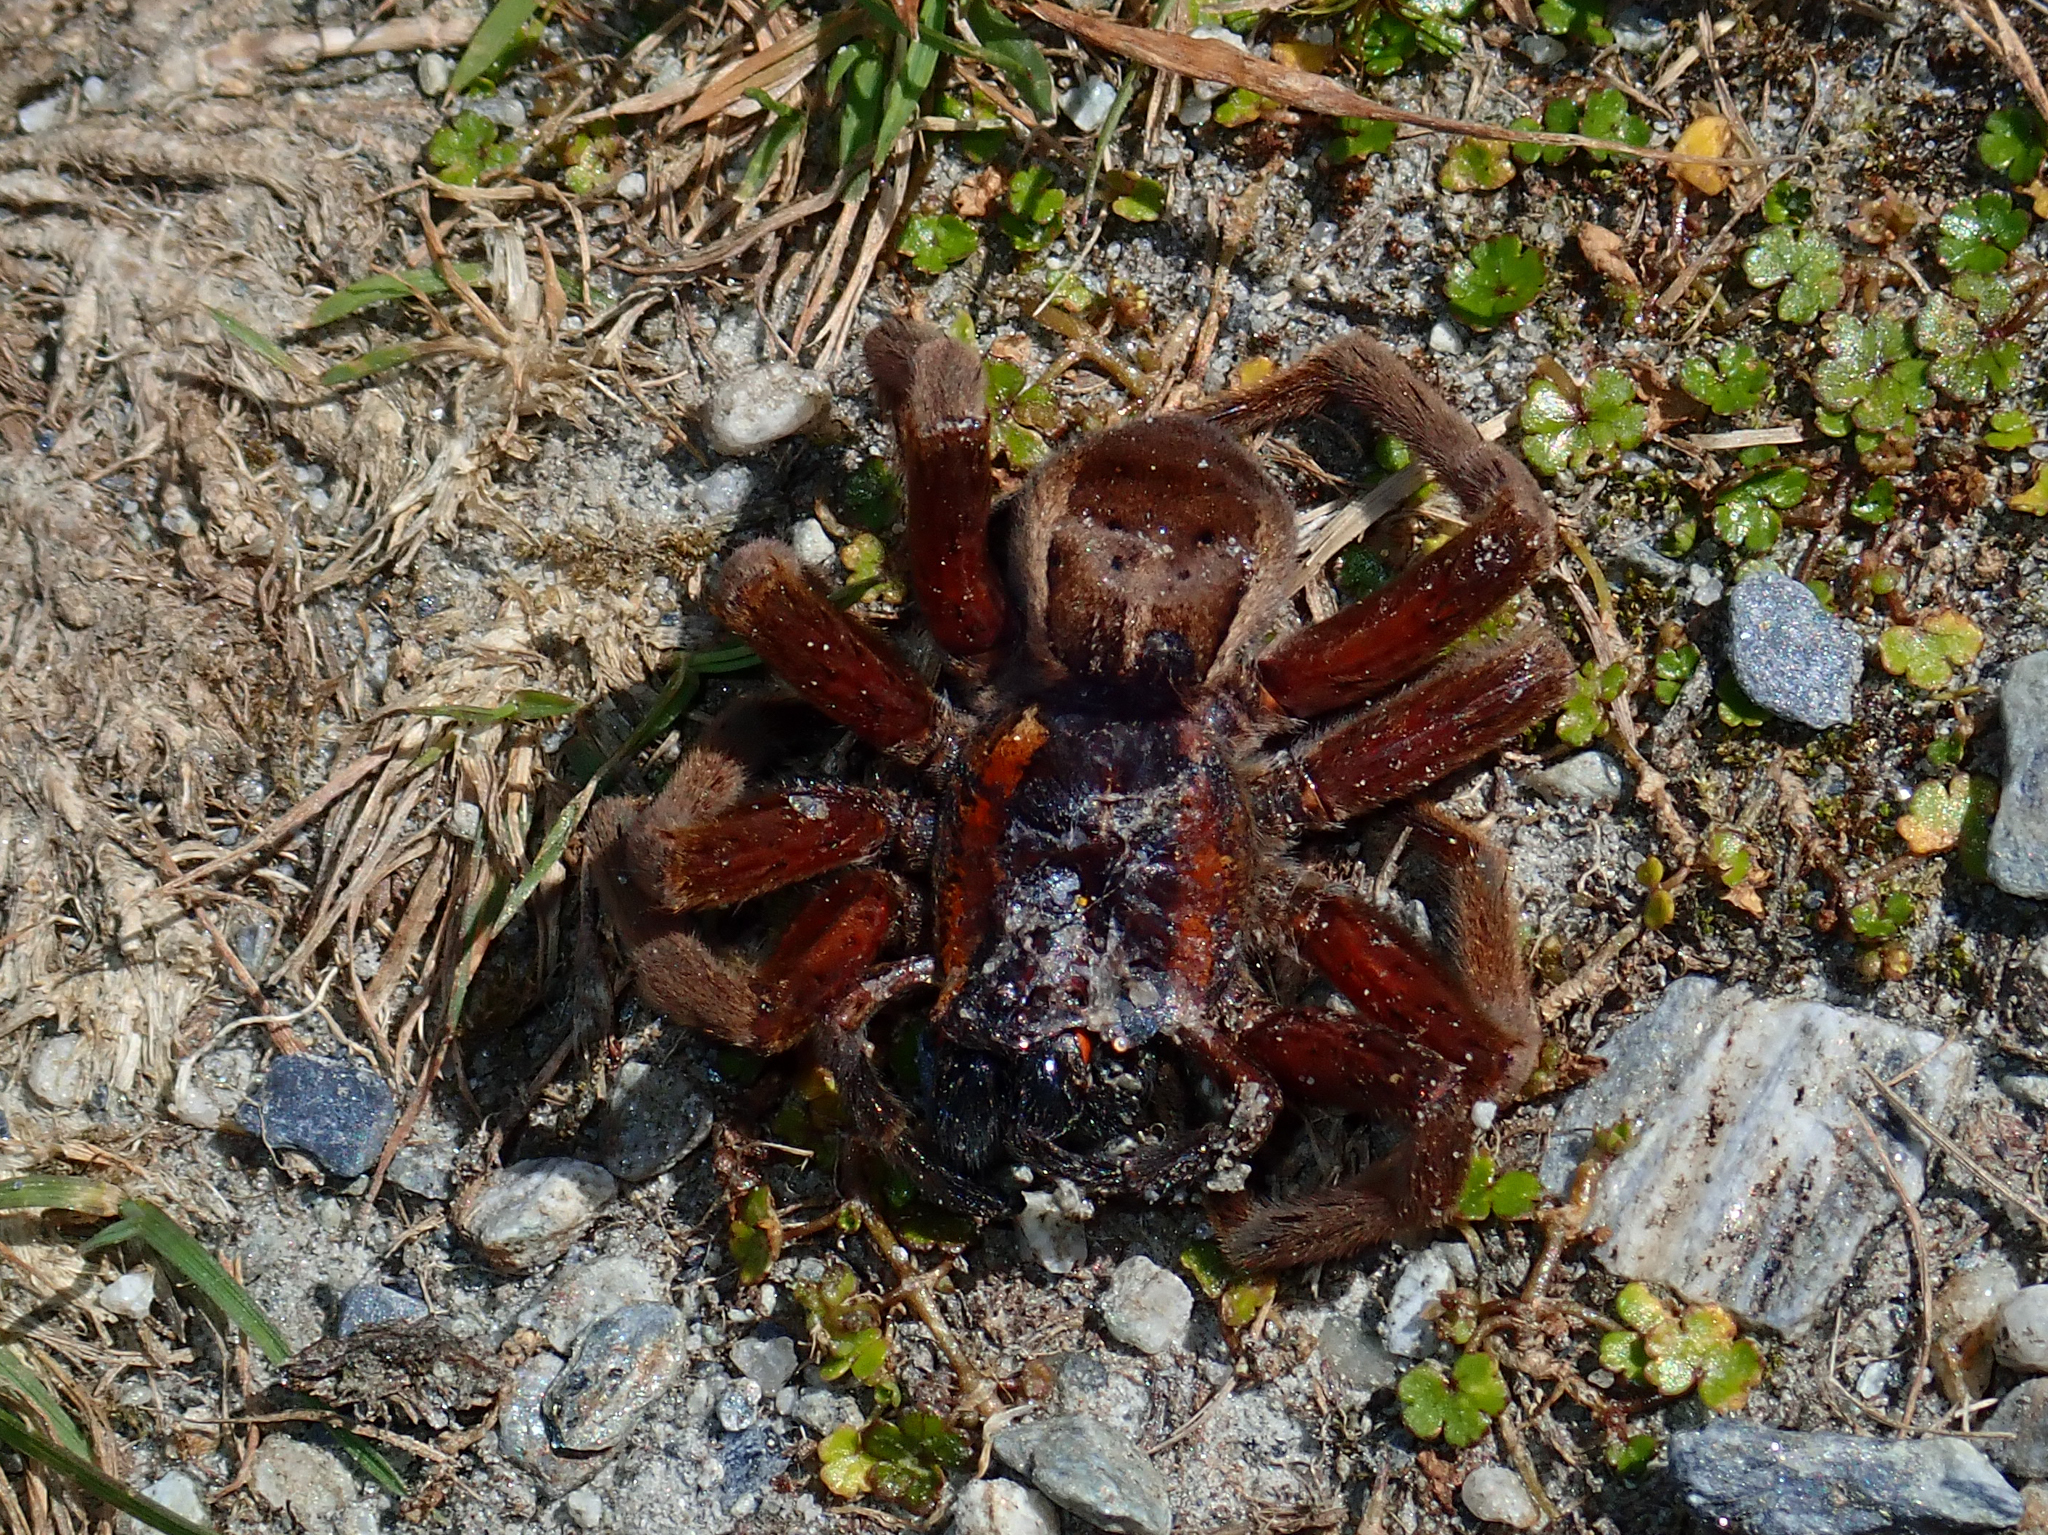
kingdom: Animalia
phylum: Arthropoda
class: Arachnida
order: Araneae
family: Pisauridae
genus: Dolomedes
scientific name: Dolomedes minor
